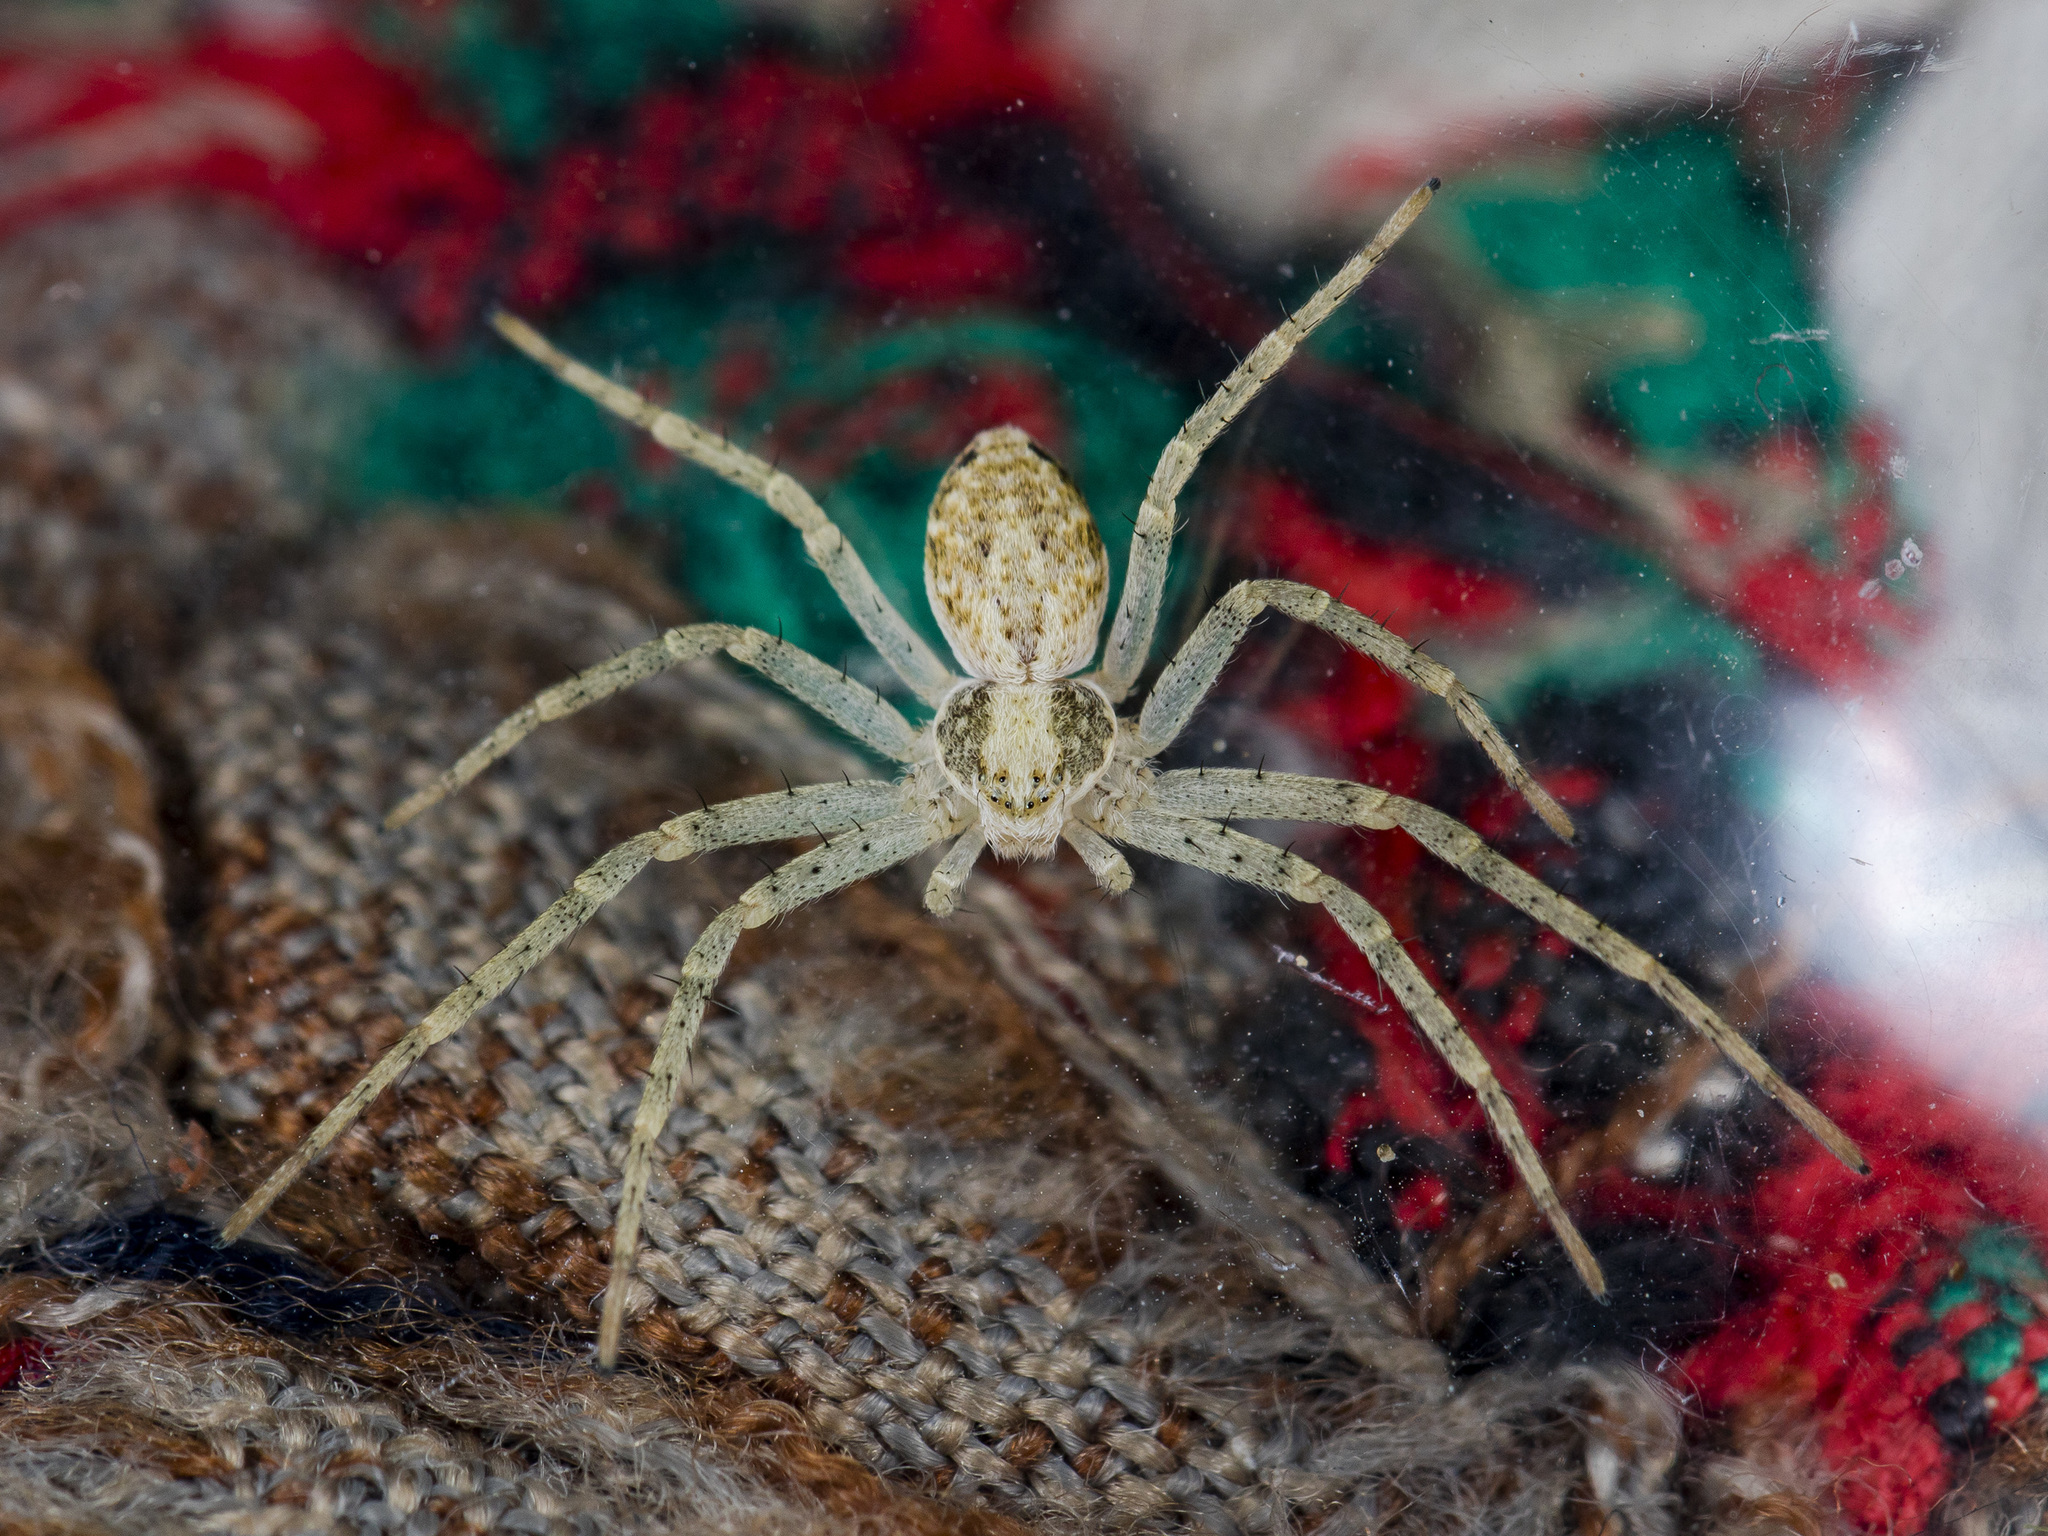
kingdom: Animalia
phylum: Arthropoda
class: Arachnida
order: Araneae
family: Philodromidae
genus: Philodromus
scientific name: Philodromus longipalpis
